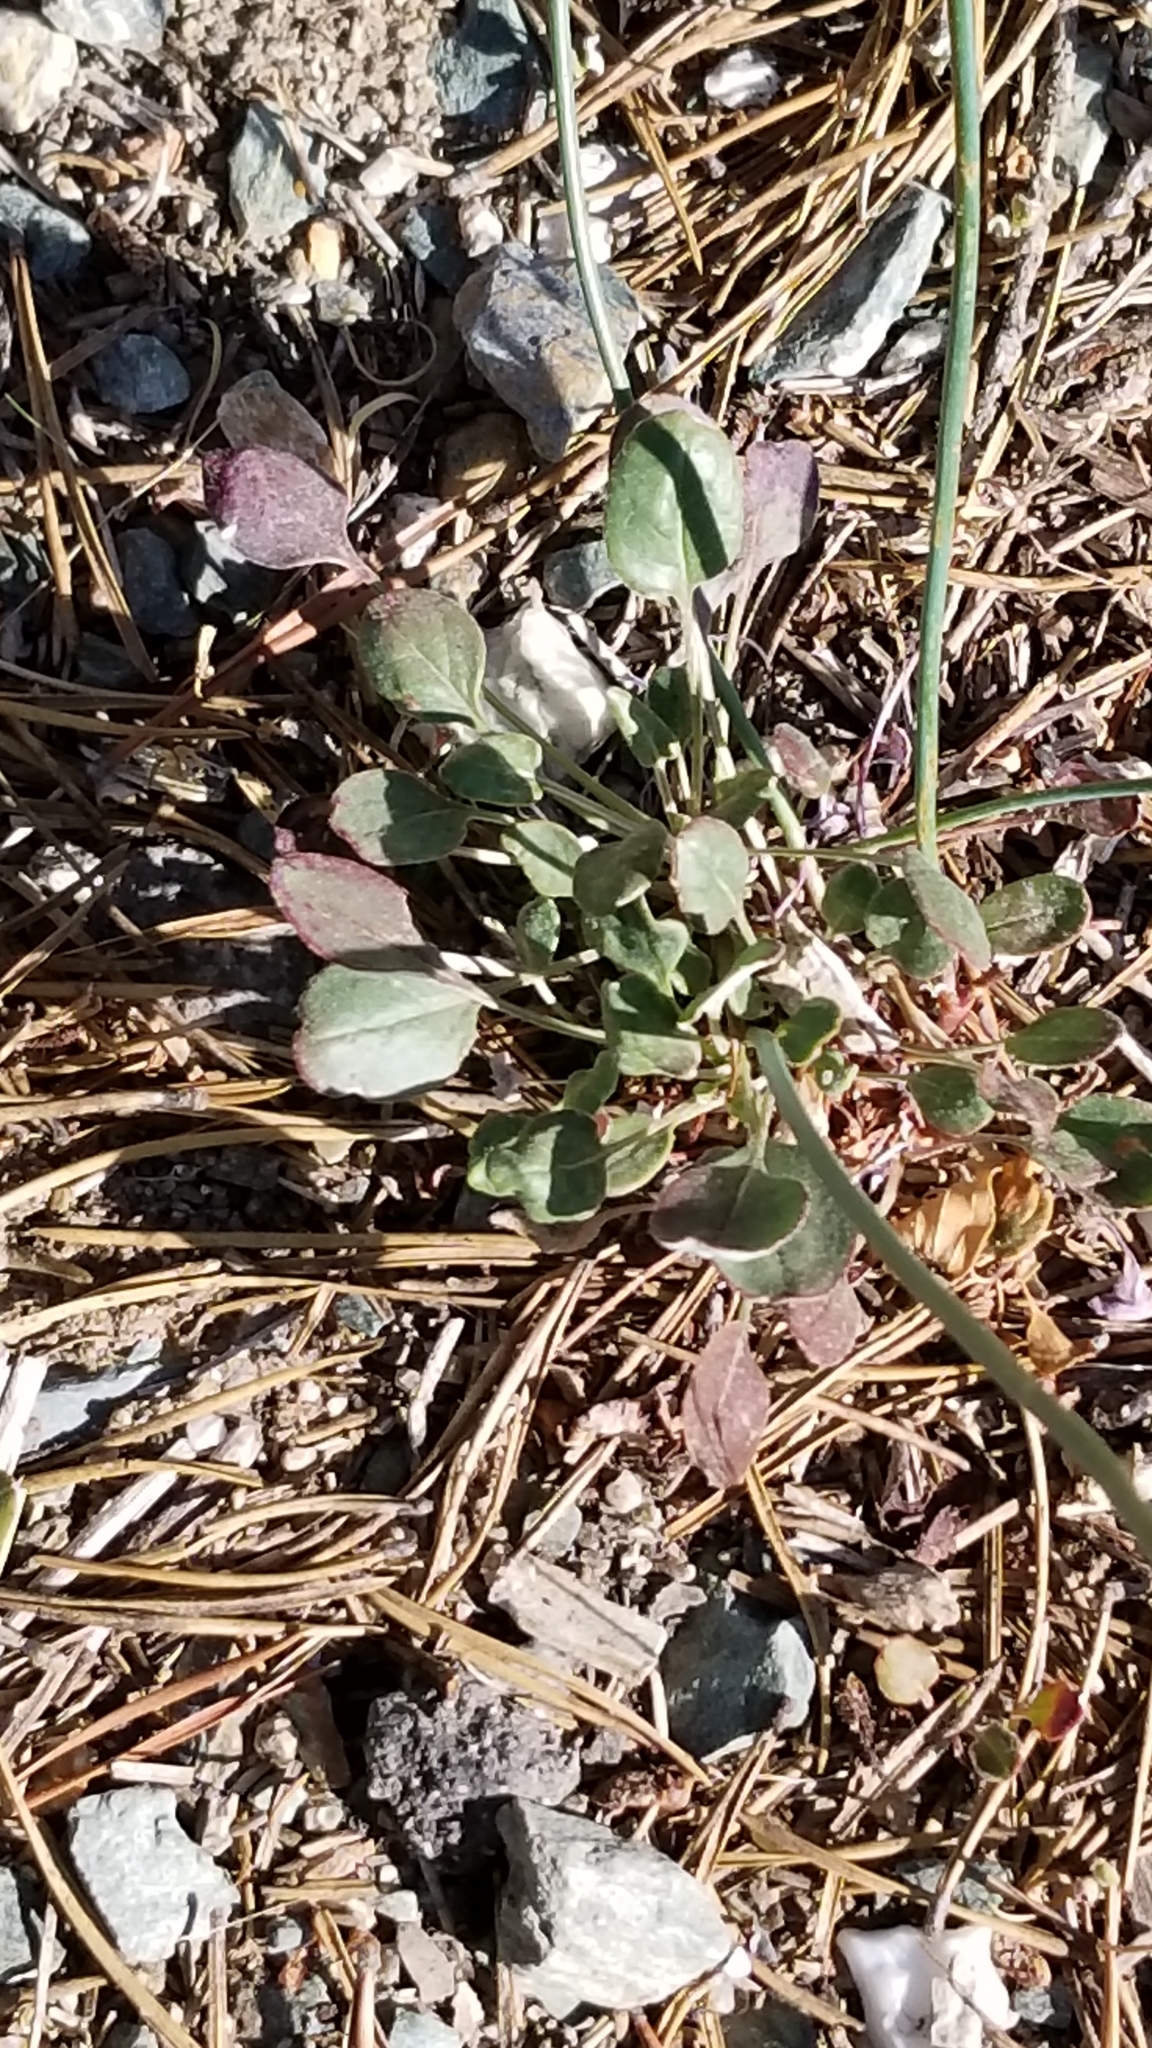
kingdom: Plantae
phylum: Tracheophyta
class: Magnoliopsida
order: Caryophyllales
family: Polygonaceae
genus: Eriogonum
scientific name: Eriogonum nudum
